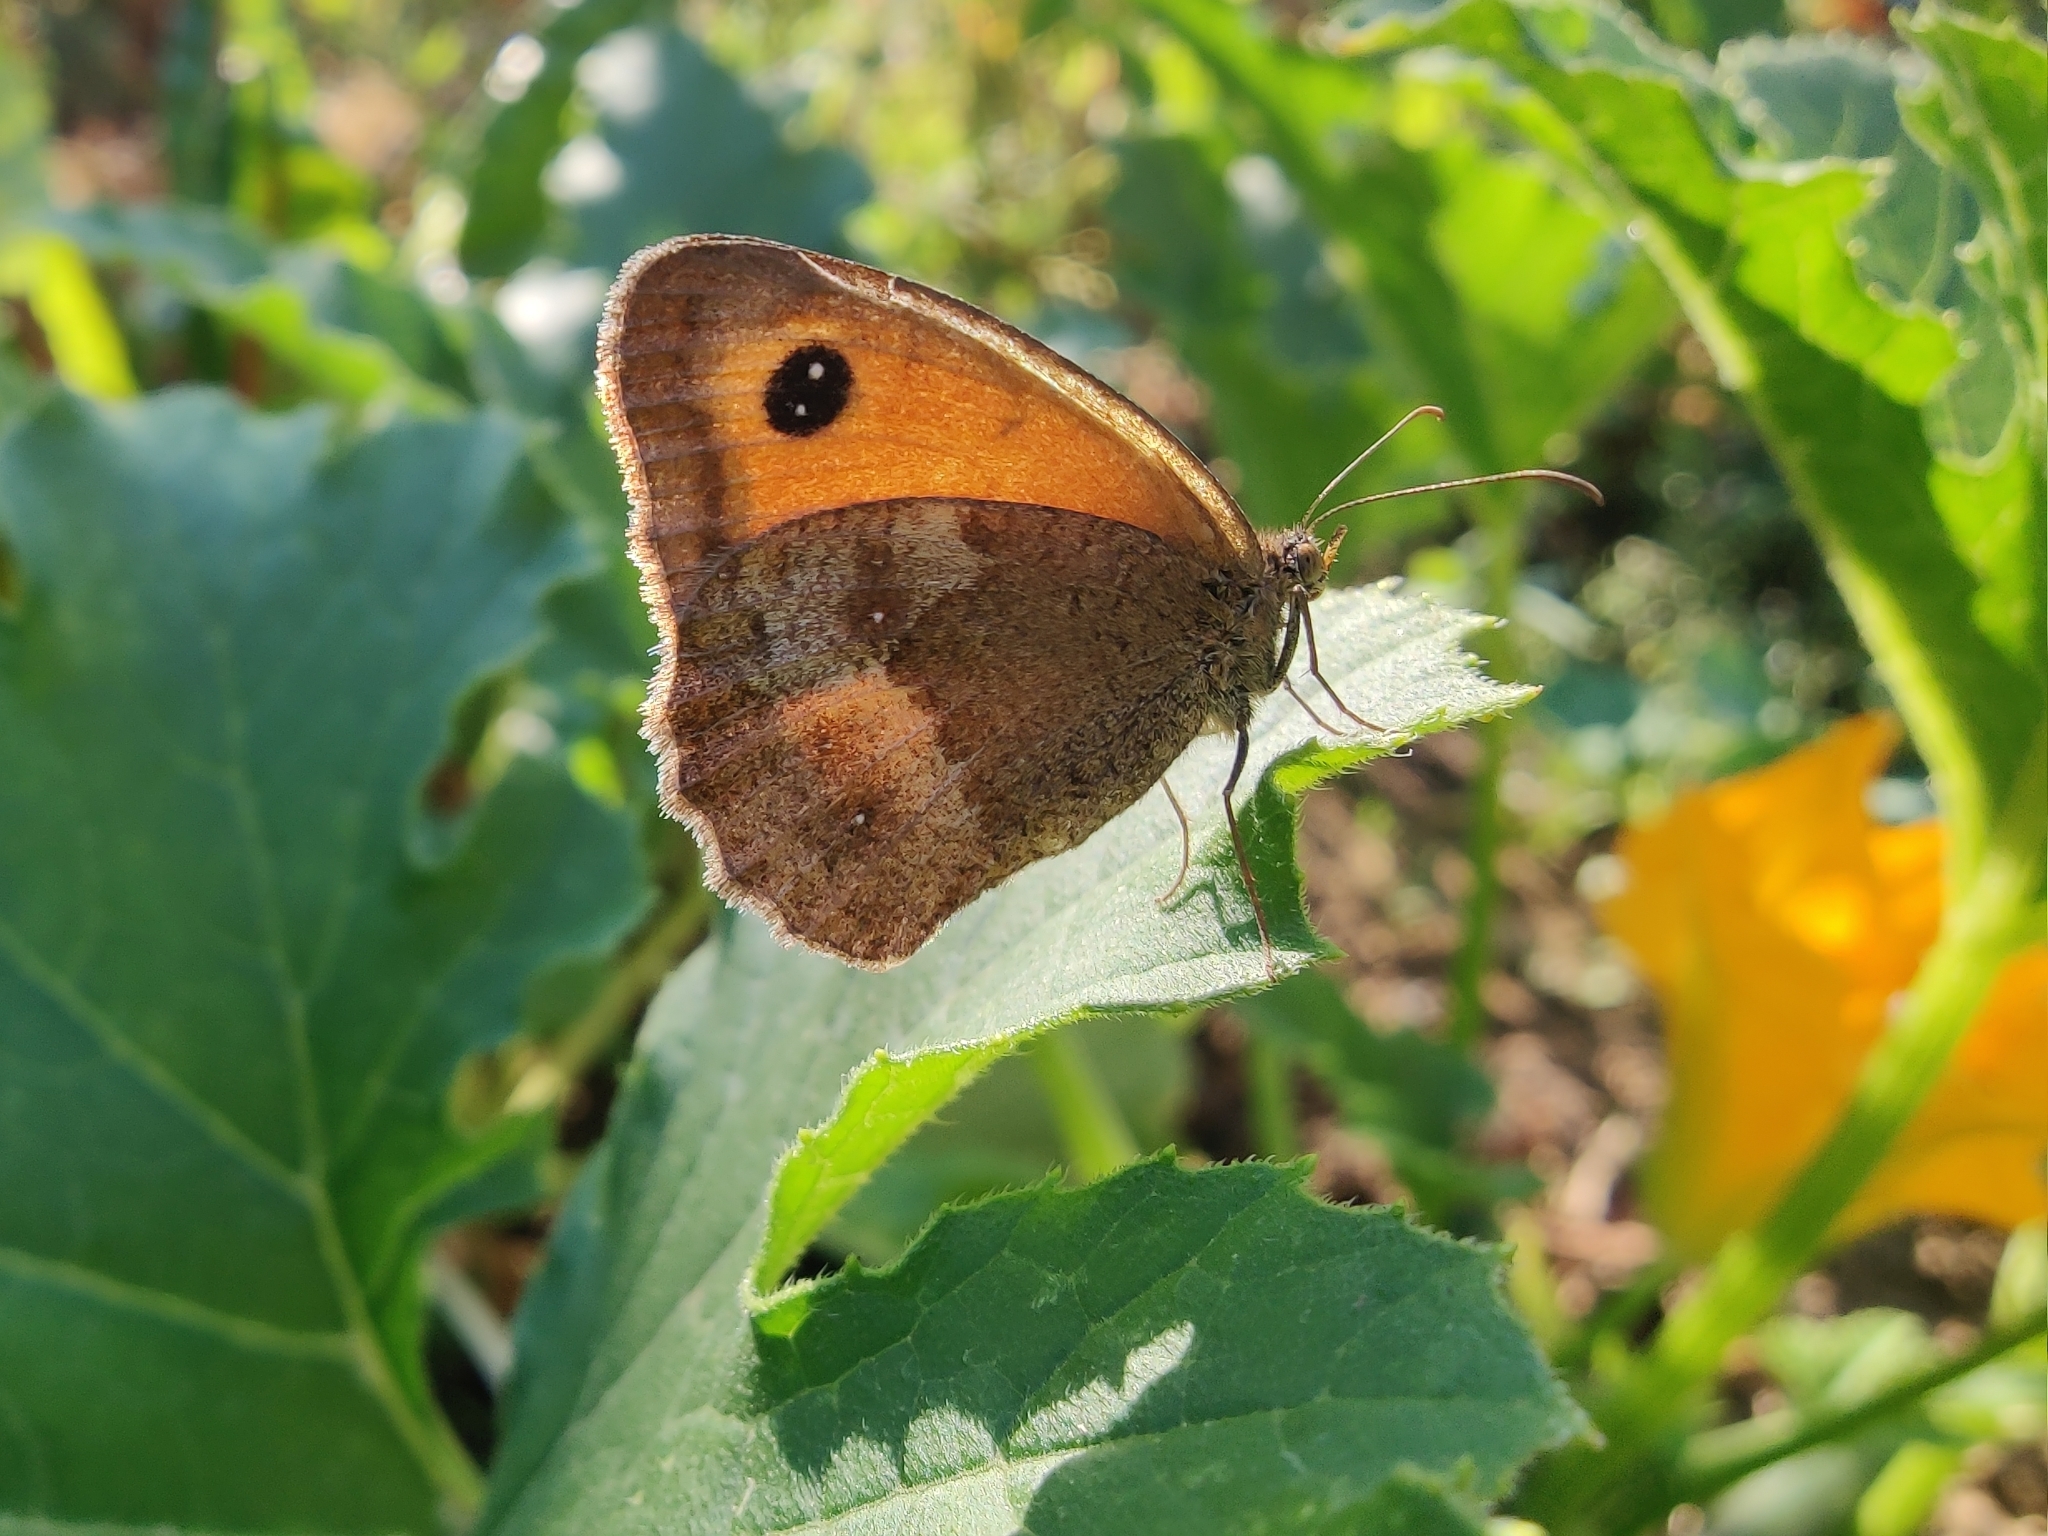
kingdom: Animalia
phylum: Arthropoda
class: Insecta
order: Lepidoptera
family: Nymphalidae
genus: Pyronia
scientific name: Pyronia tithonus
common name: Gatekeeper
